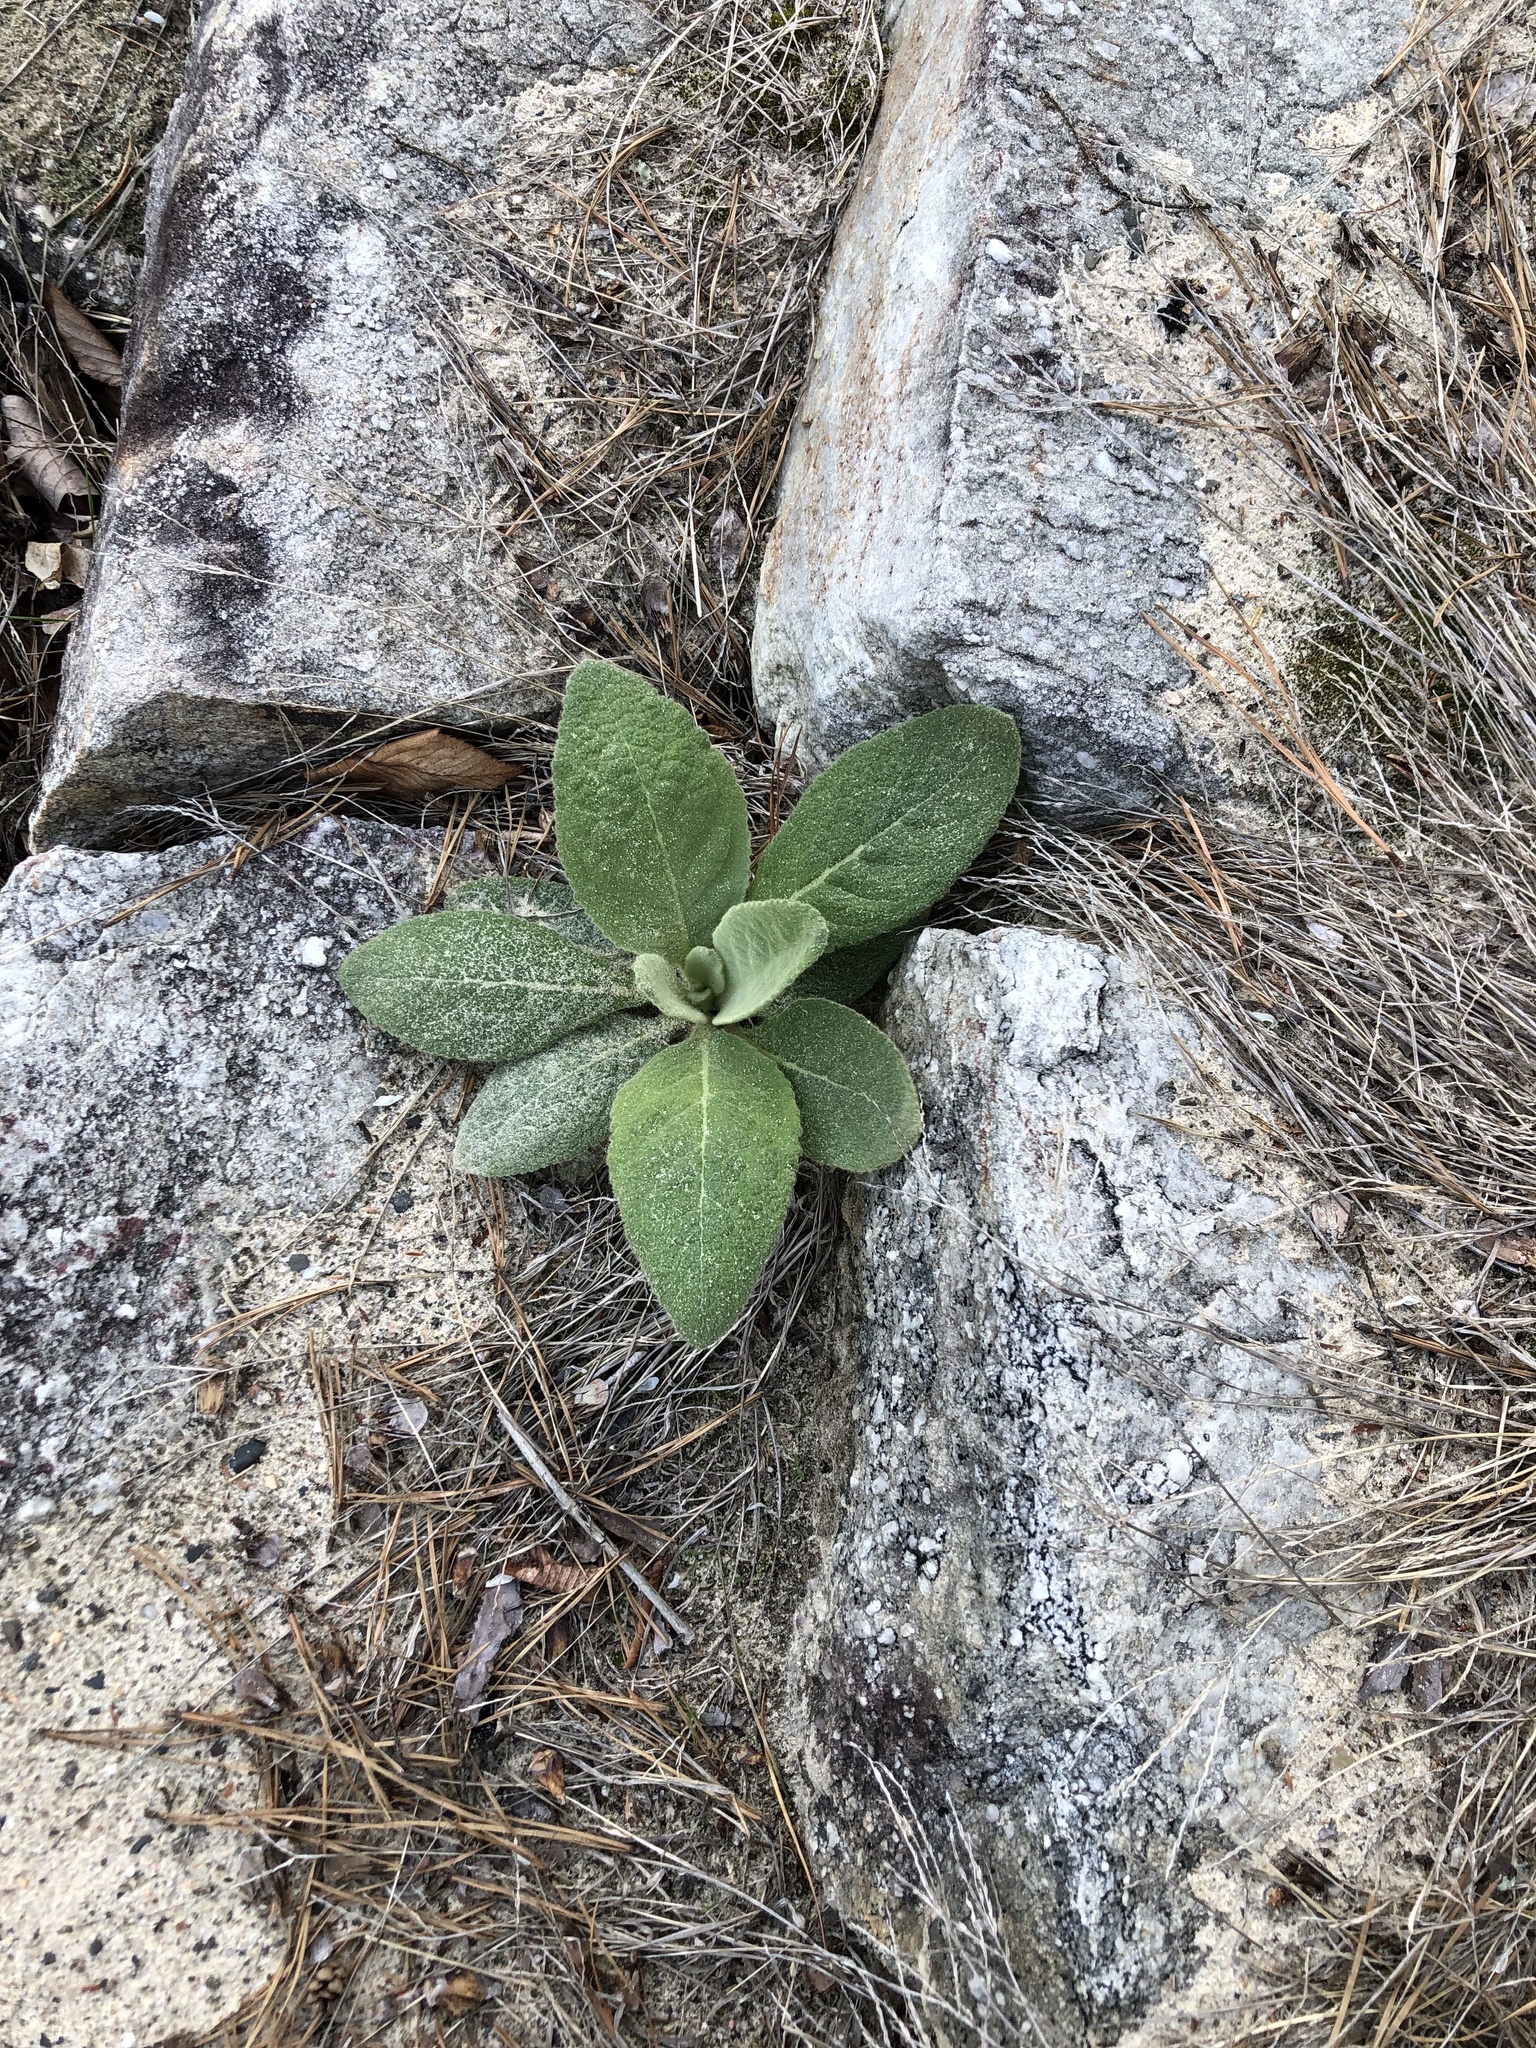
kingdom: Plantae
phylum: Tracheophyta
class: Magnoliopsida
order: Lamiales
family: Scrophulariaceae
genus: Verbascum
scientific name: Verbascum thapsus
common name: Common mullein
